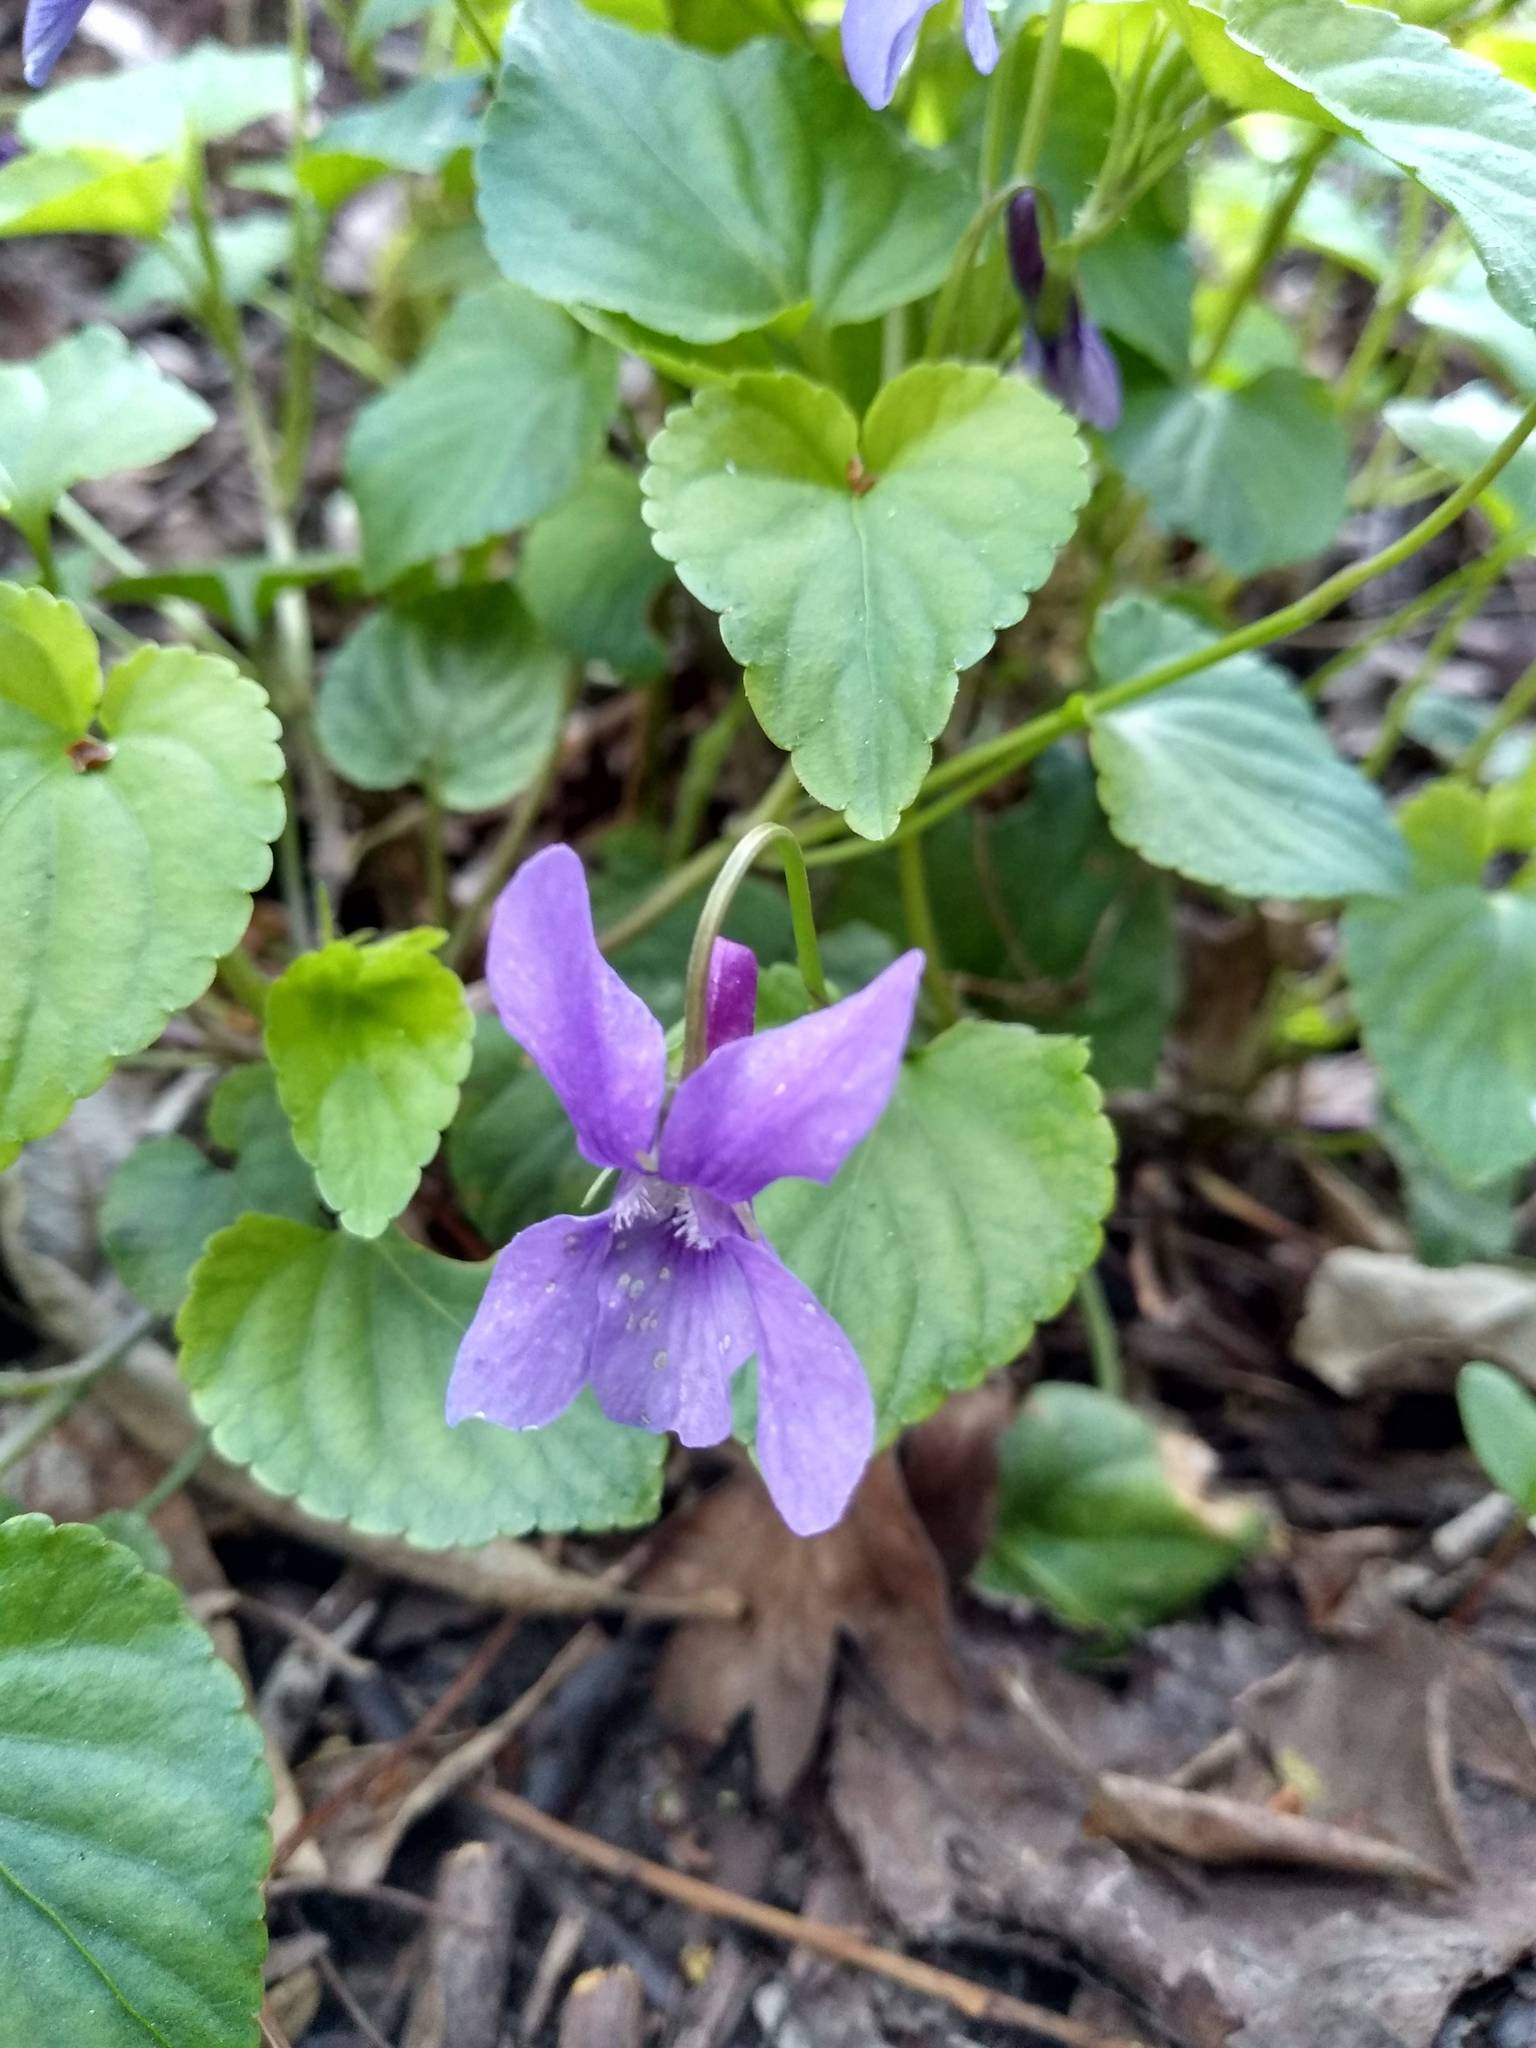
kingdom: Plantae
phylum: Tracheophyta
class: Magnoliopsida
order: Malpighiales
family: Violaceae
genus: Viola
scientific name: Viola reichenbachiana
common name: Early dog-violet
